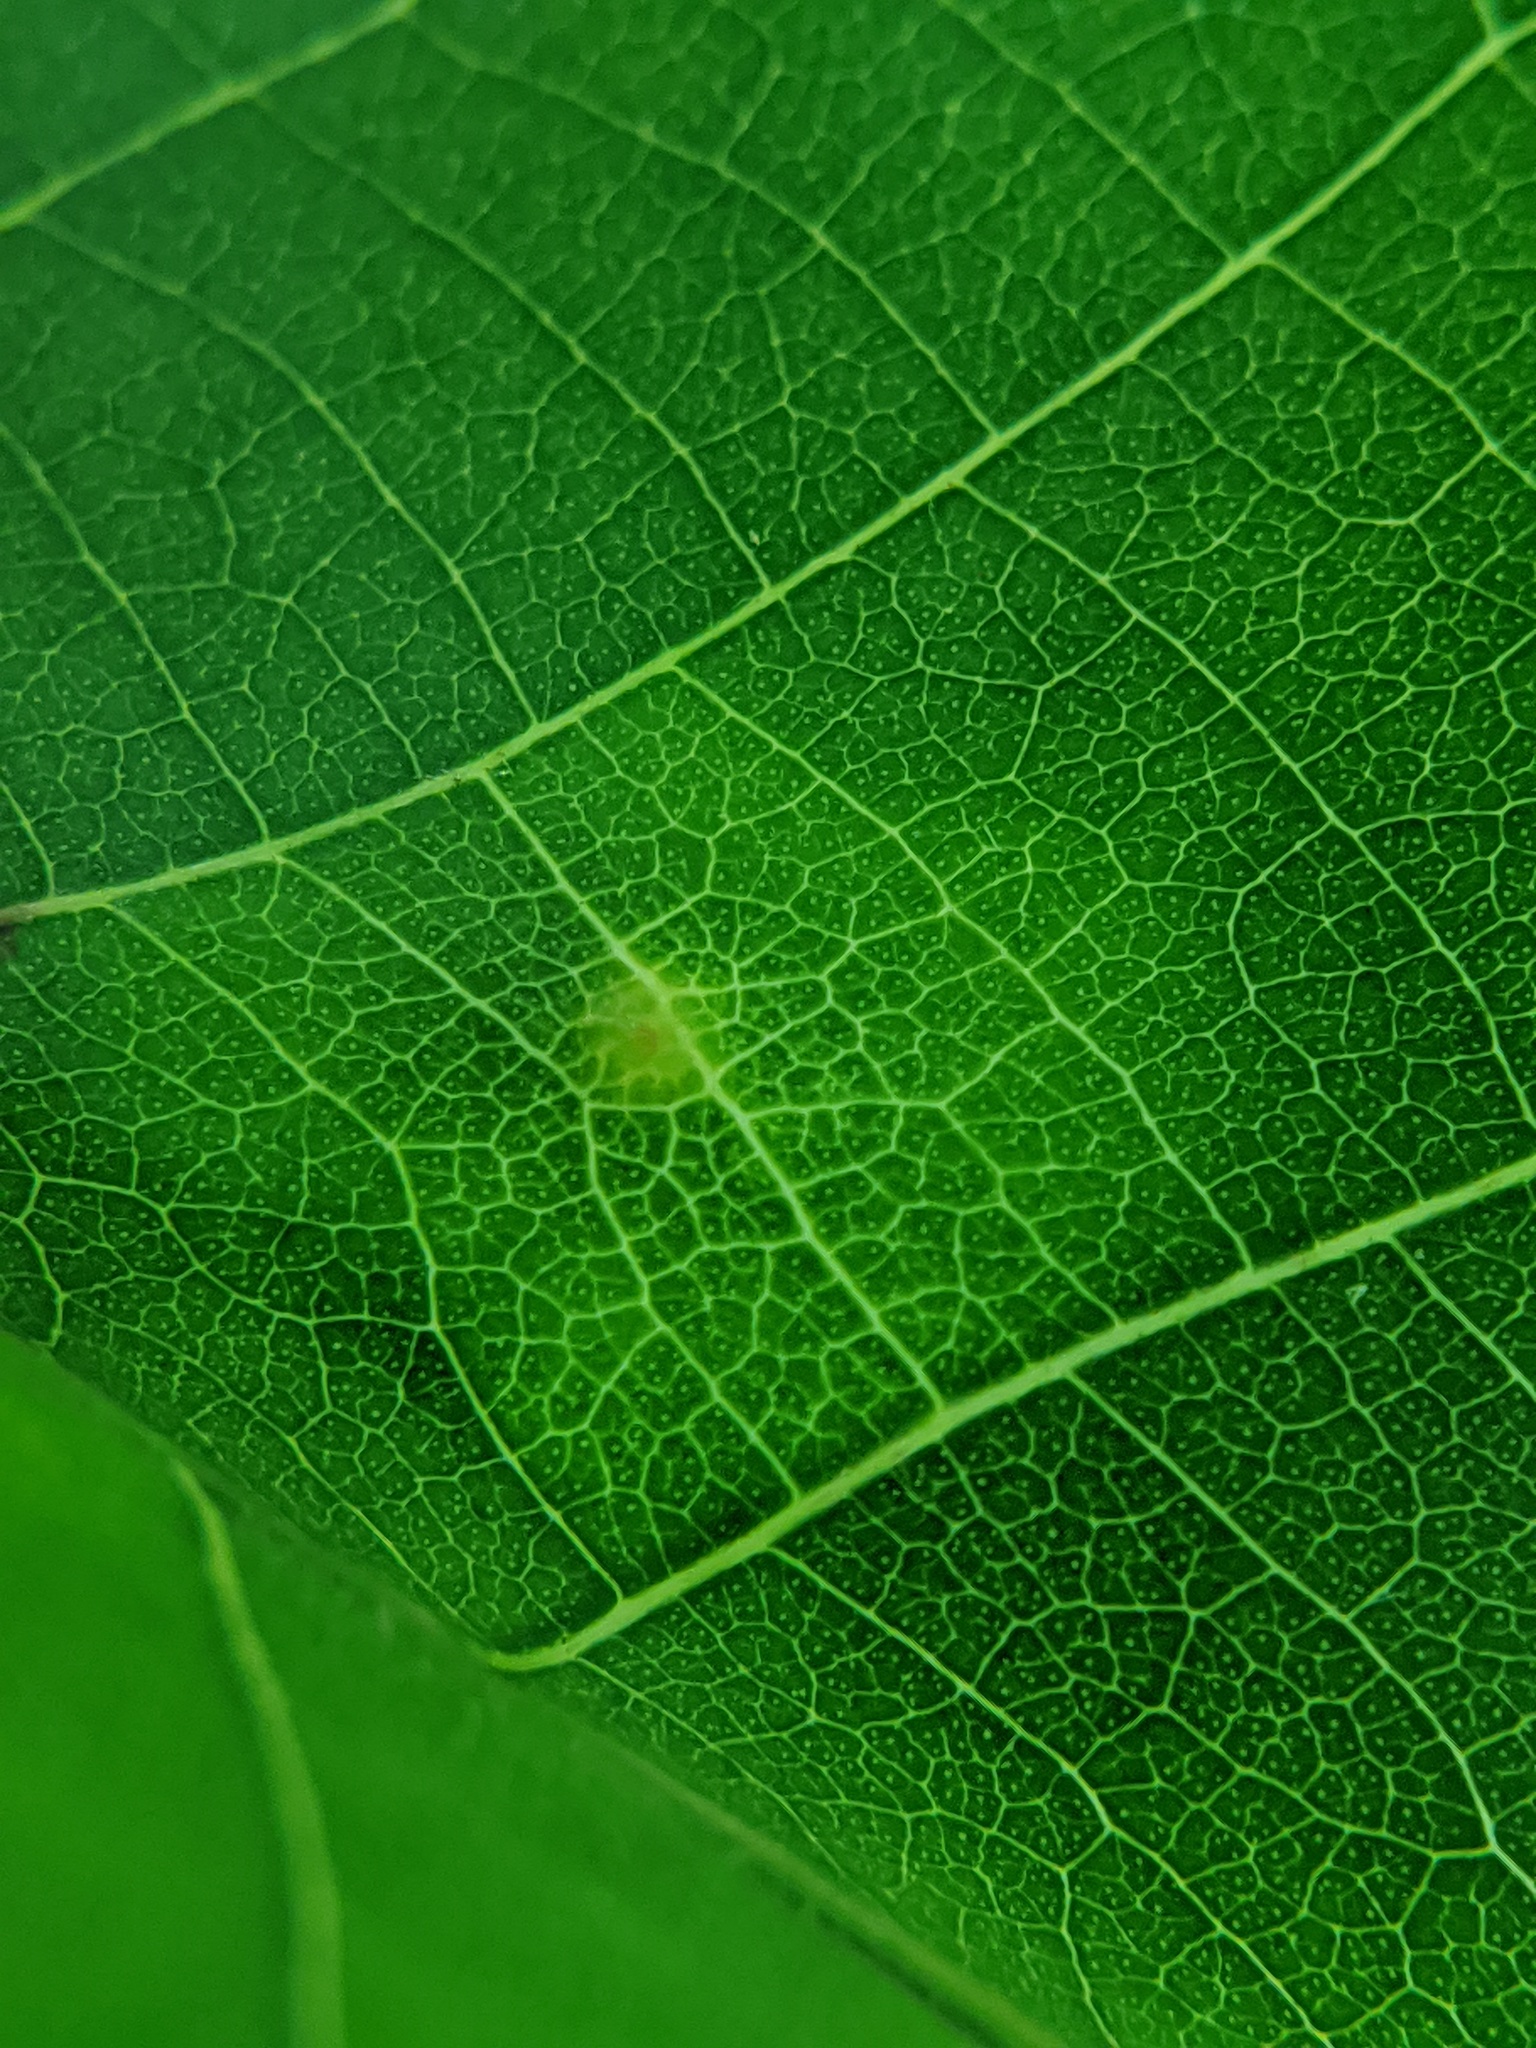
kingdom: Animalia
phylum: Arthropoda
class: Insecta
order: Diptera
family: Cecidomyiidae
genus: Caryomyia
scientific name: Caryomyia inclinata
